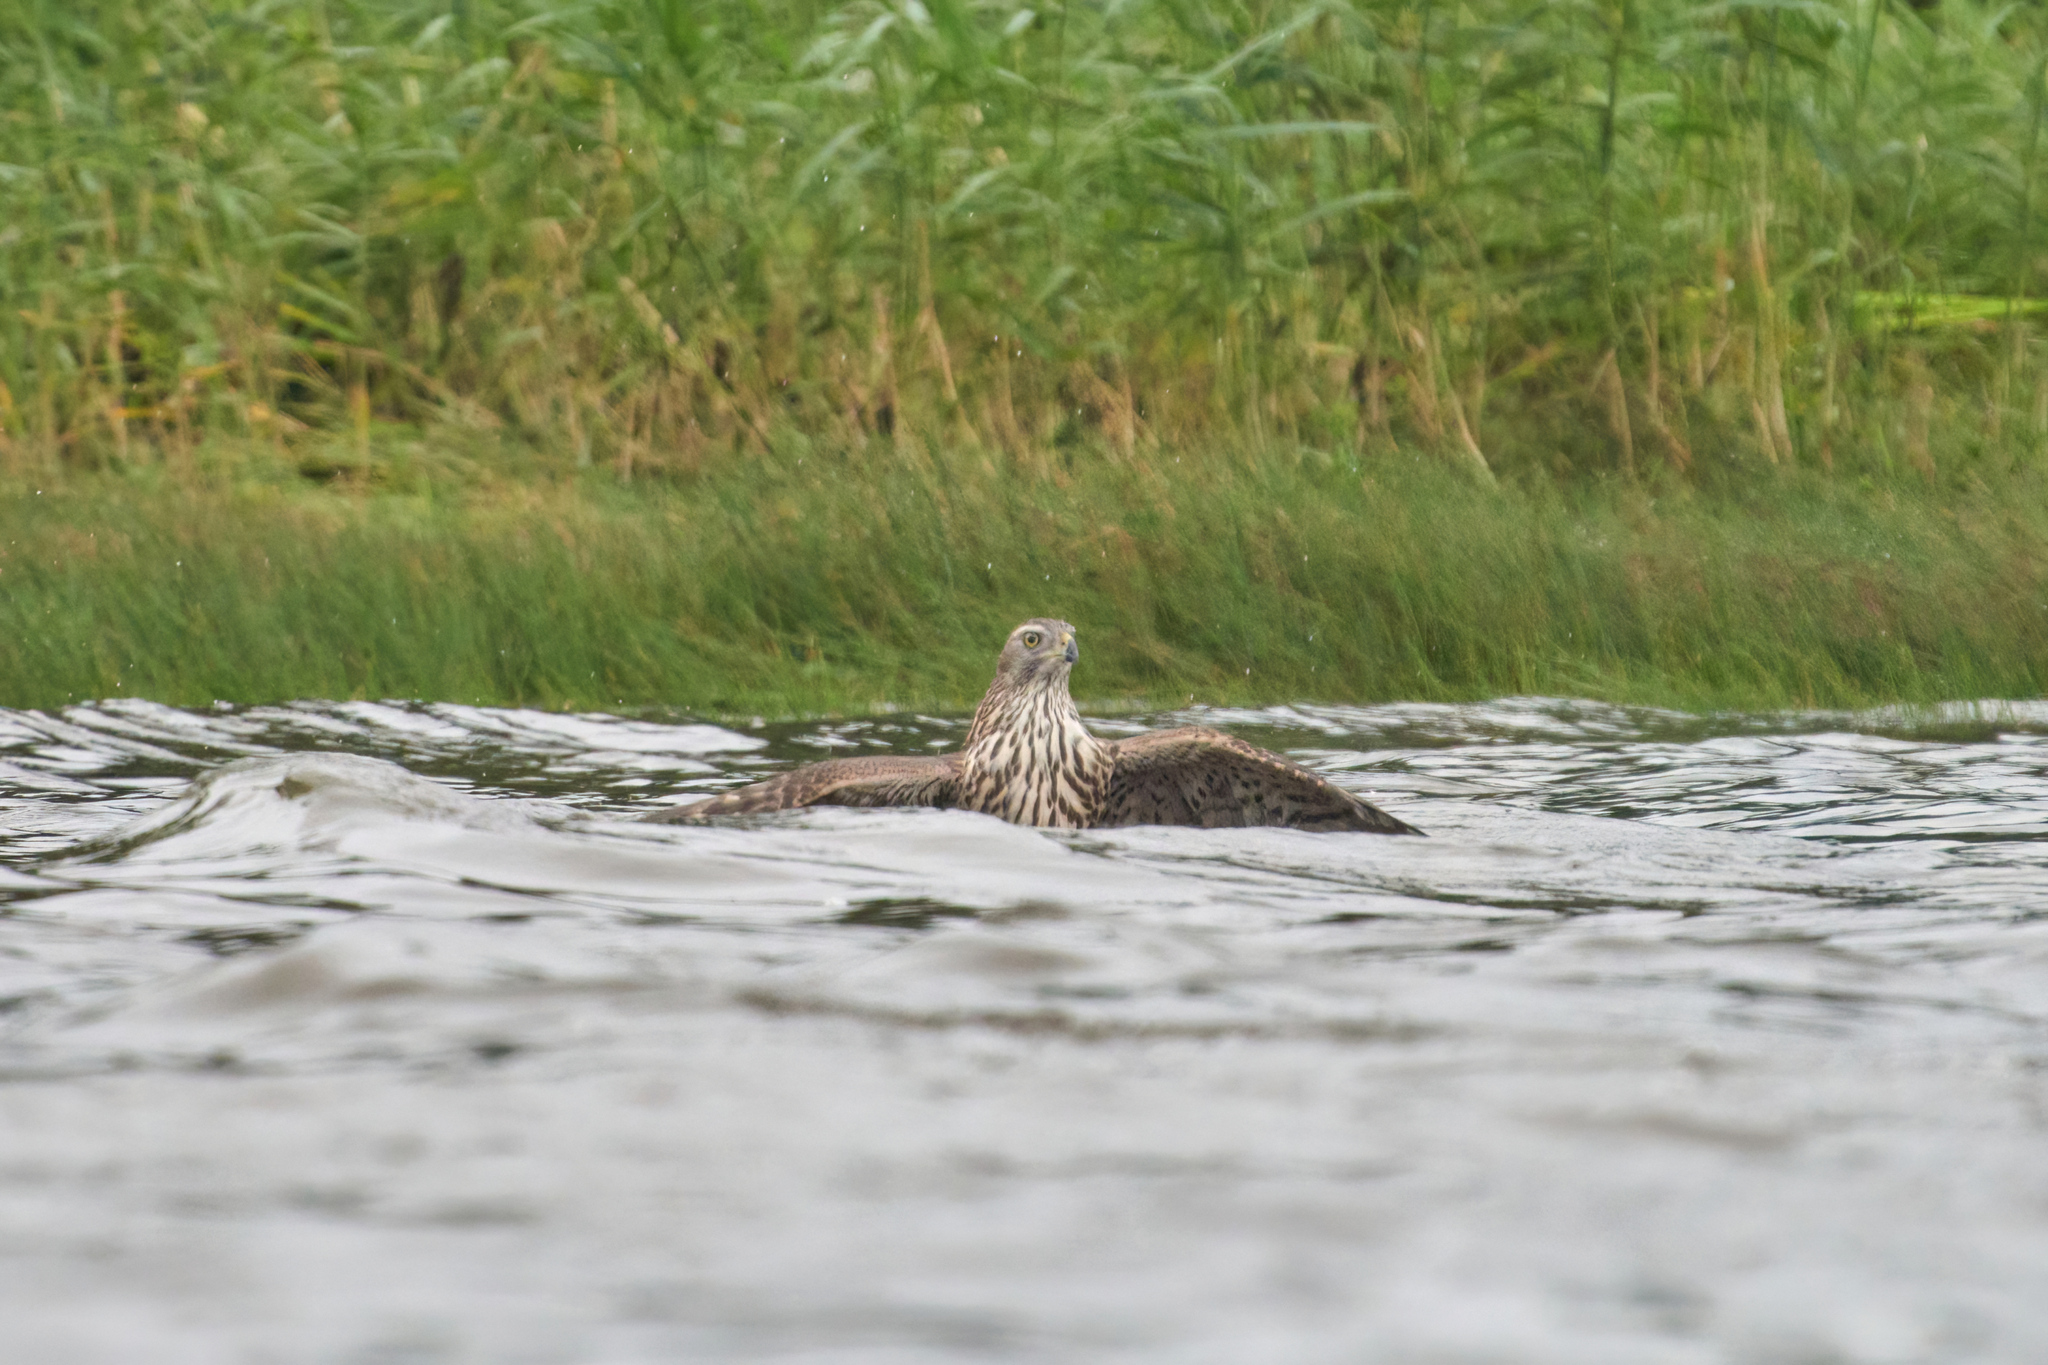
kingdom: Animalia
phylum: Chordata
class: Aves
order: Accipitriformes
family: Accipitridae
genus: Accipiter
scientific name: Accipiter gentilis
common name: Northern goshawk
